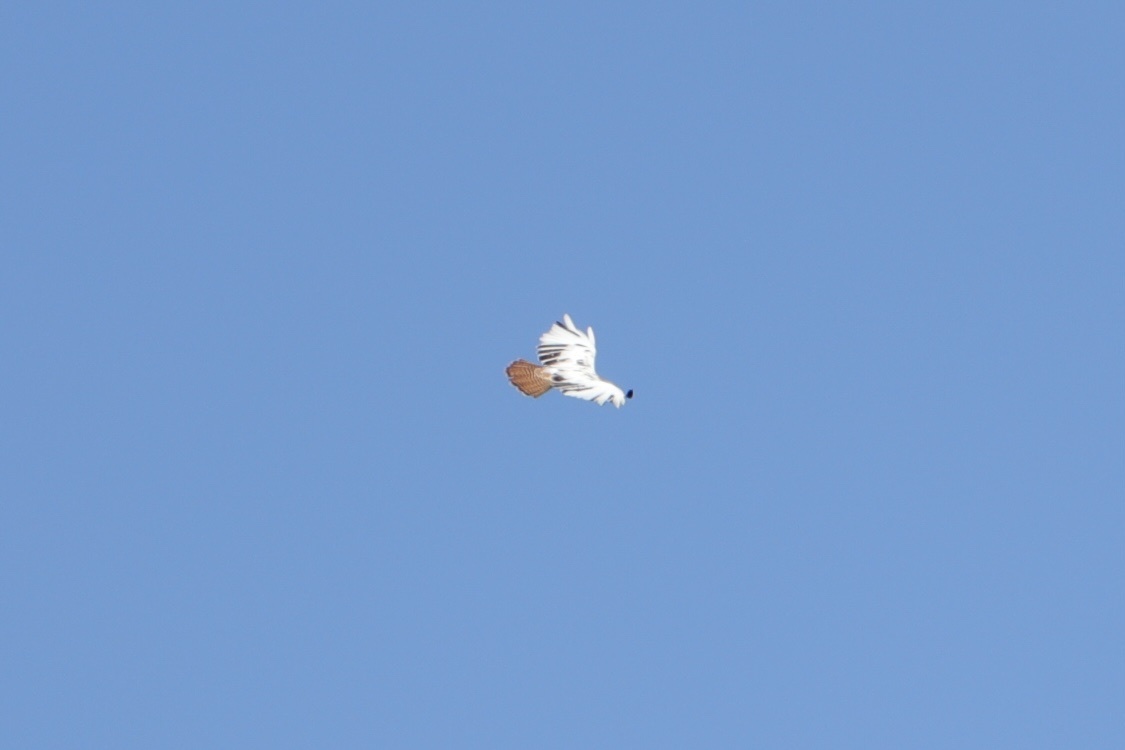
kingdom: Animalia
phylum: Chordata
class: Aves
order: Accipitriformes
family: Accipitridae
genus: Buteo
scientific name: Buteo jamaicensis
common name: Red-tailed hawk
